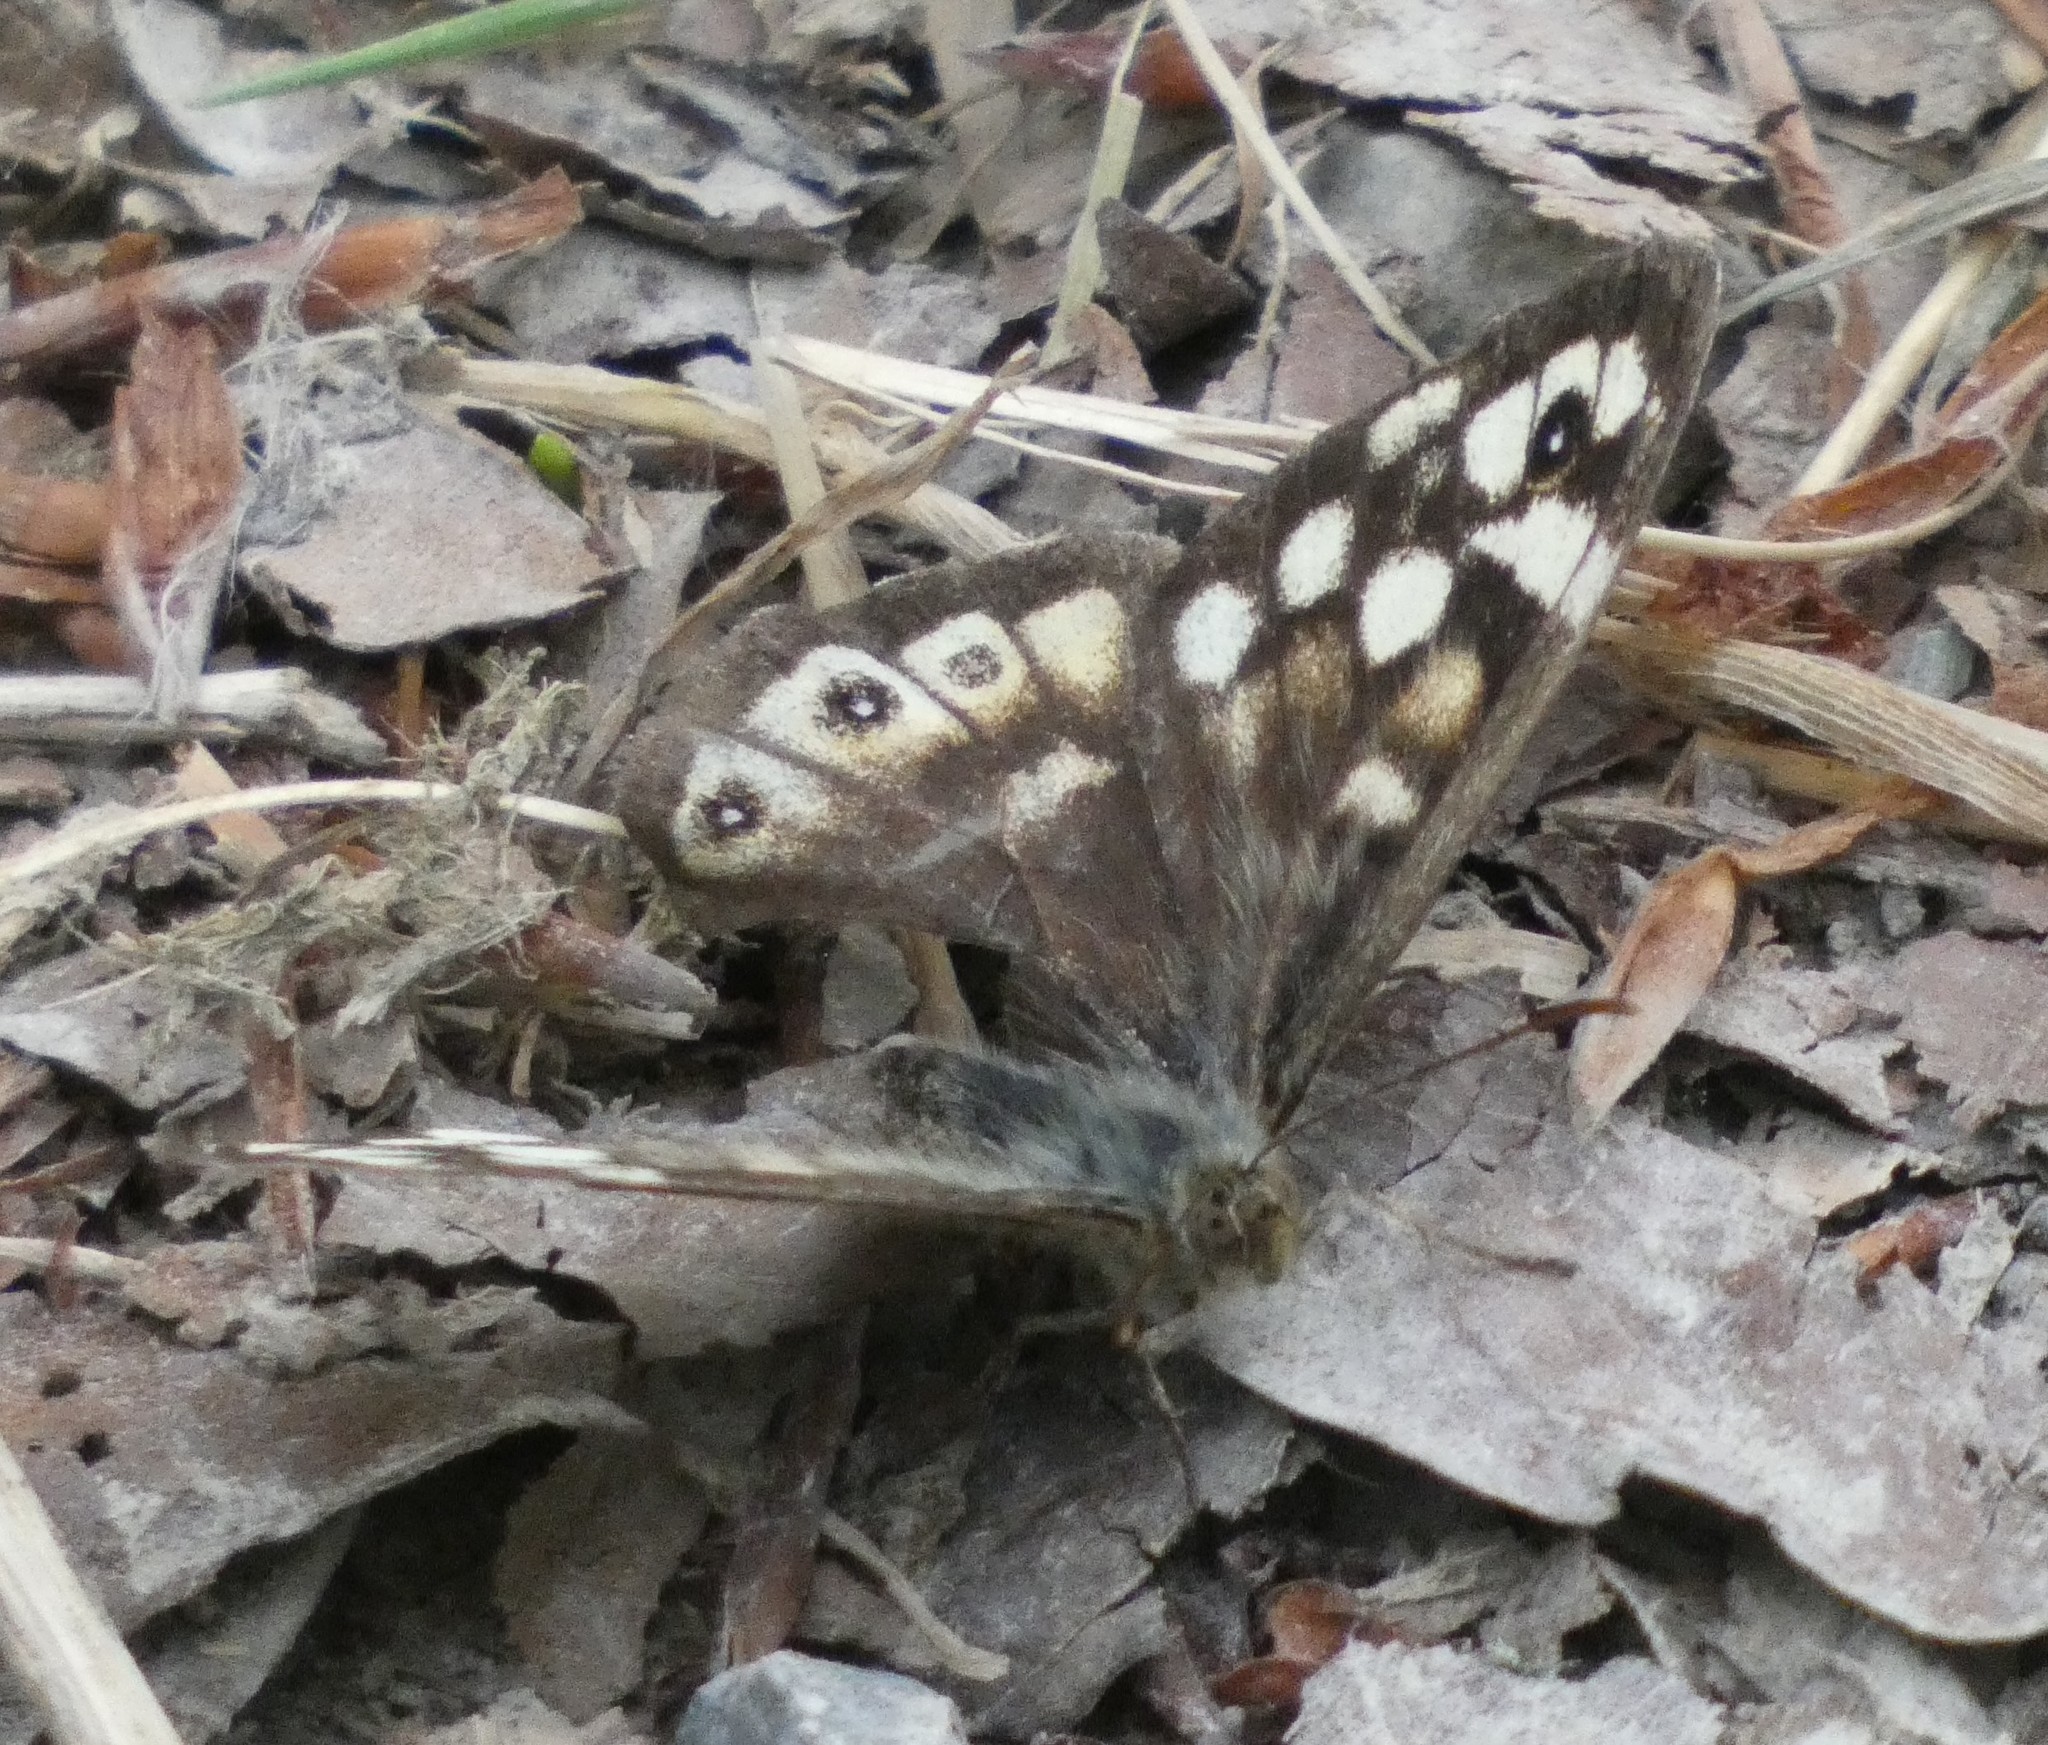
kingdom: Animalia
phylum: Arthropoda
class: Insecta
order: Lepidoptera
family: Nymphalidae
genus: Pararge
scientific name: Pararge aegeria
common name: Speckled wood
